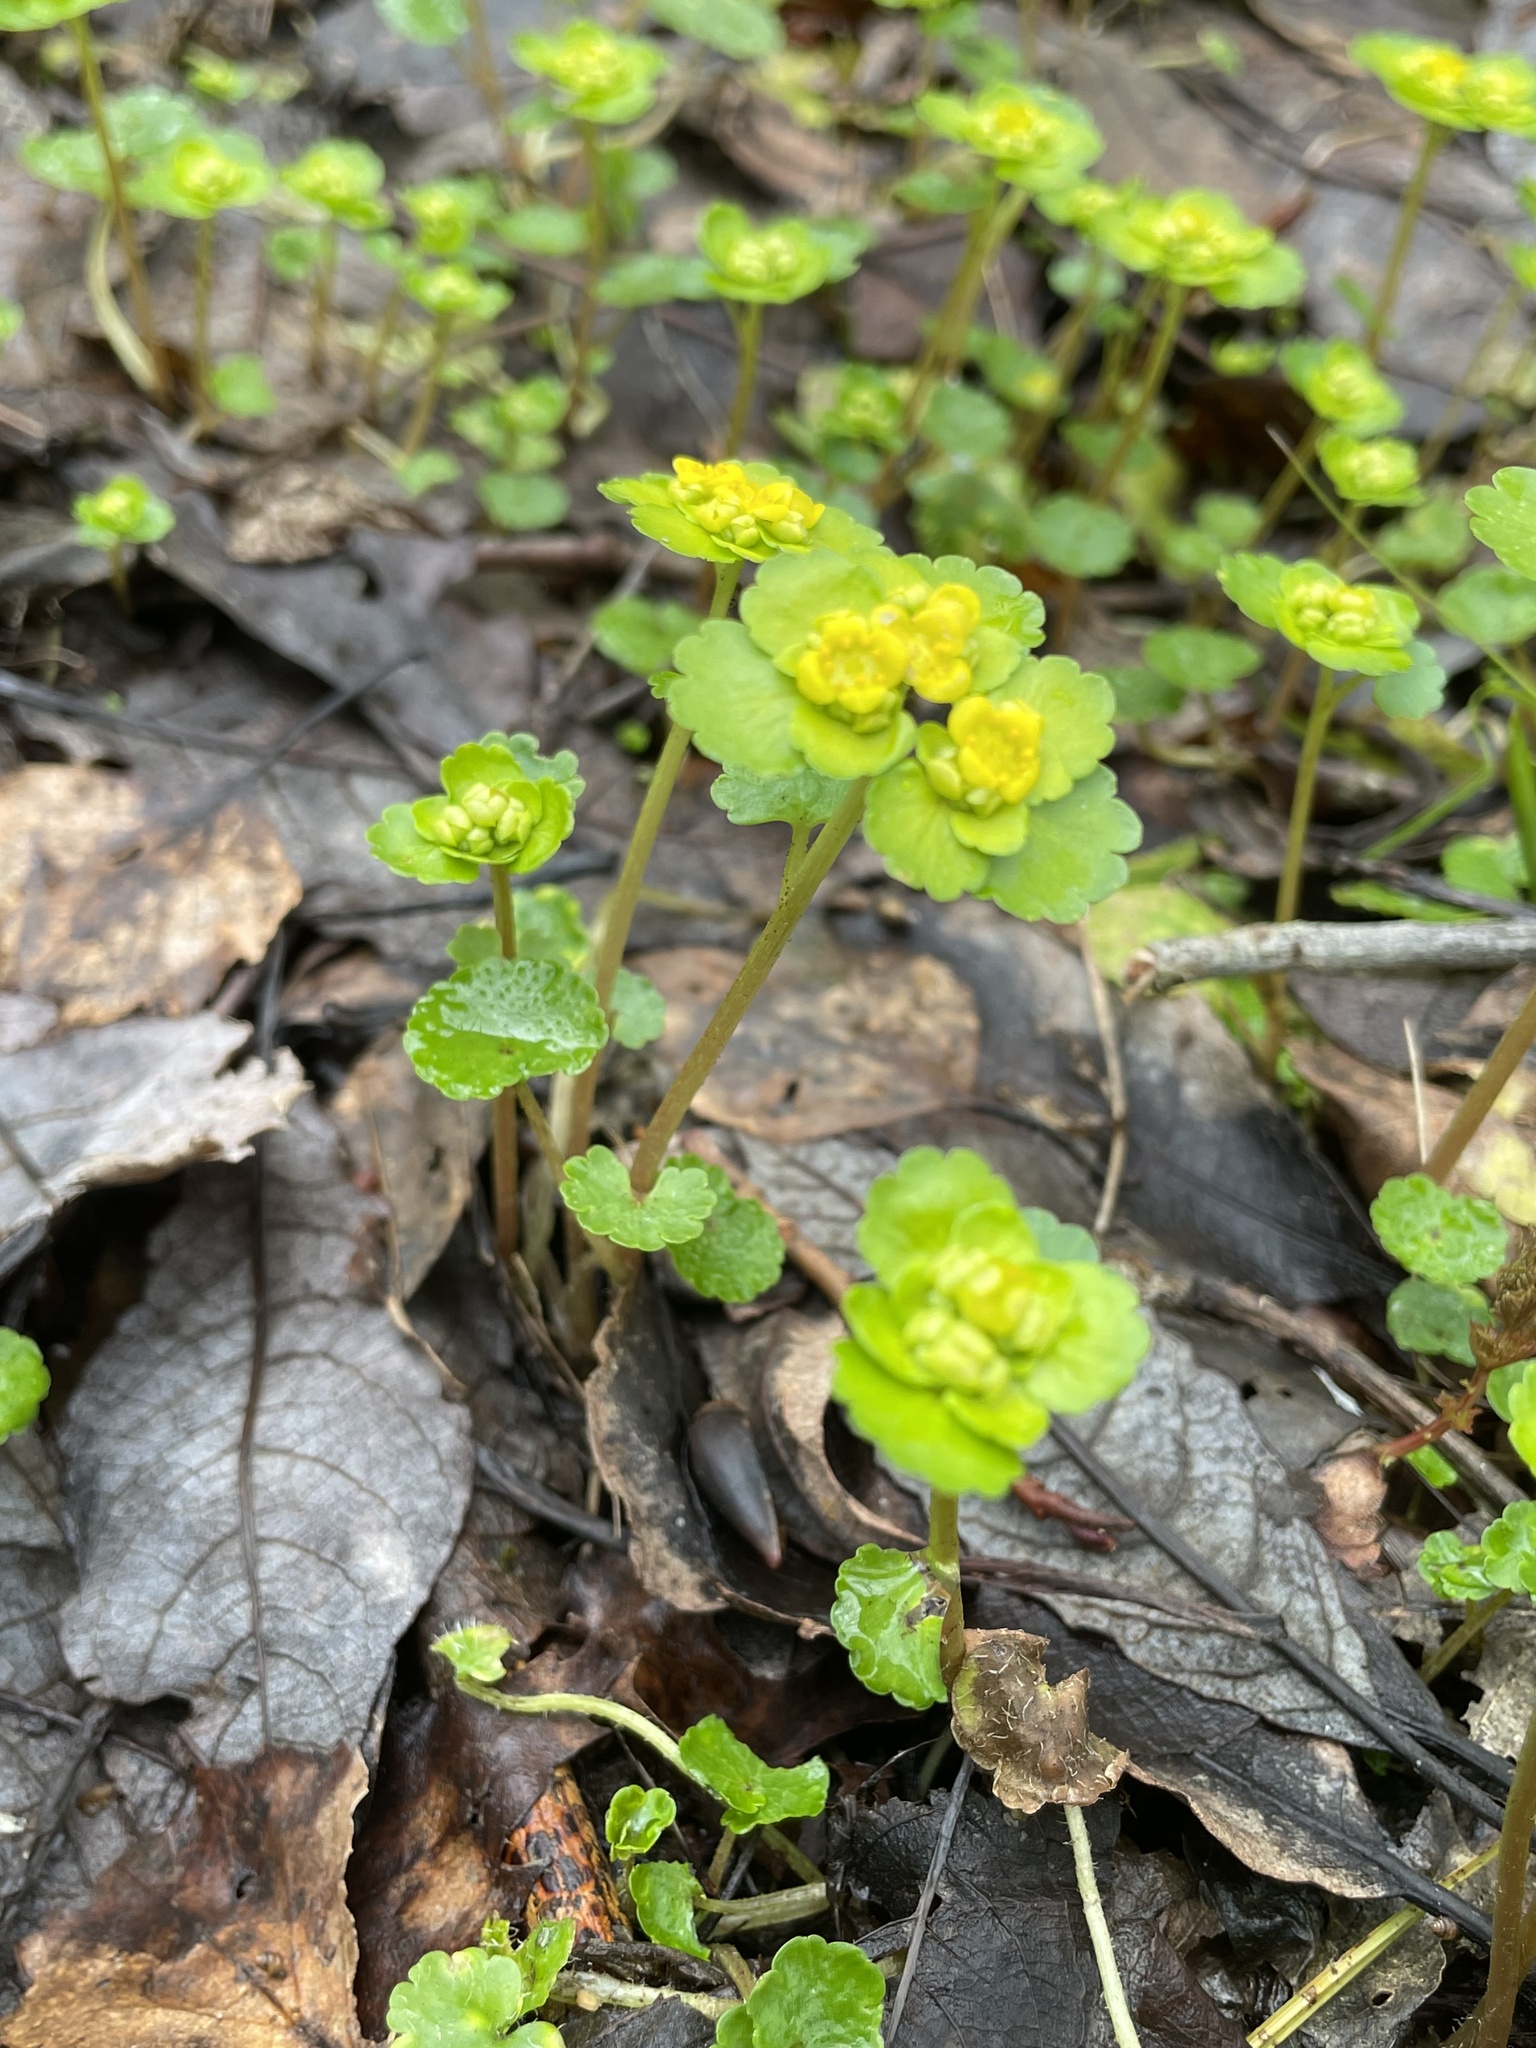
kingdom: Plantae
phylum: Tracheophyta
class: Magnoliopsida
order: Saxifragales
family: Saxifragaceae
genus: Chrysosplenium
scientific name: Chrysosplenium alternifolium
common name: Alternate-leaved golden-saxifrage
